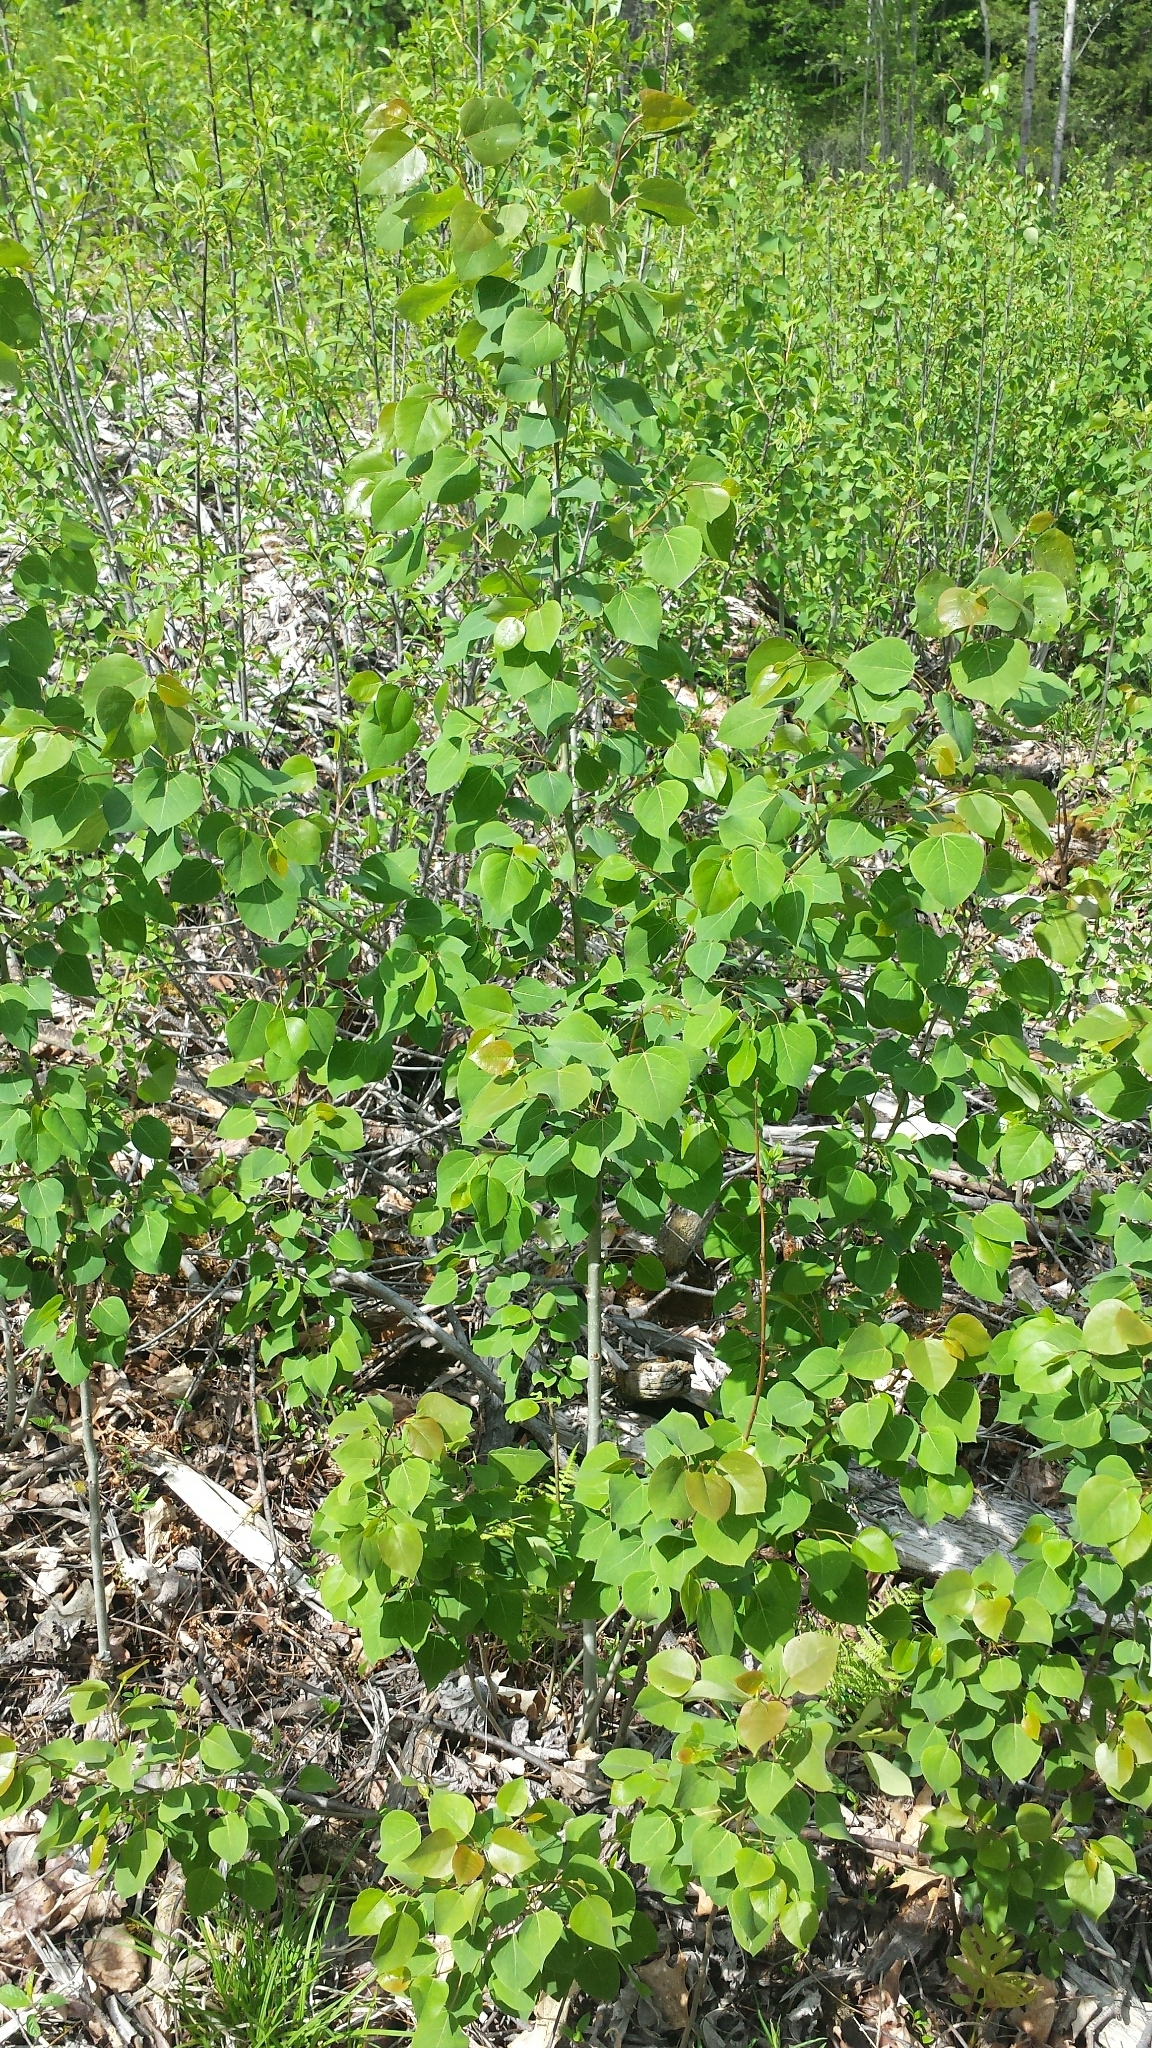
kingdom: Plantae
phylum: Tracheophyta
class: Magnoliopsida
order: Malpighiales
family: Salicaceae
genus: Populus
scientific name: Populus tremuloides
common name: Quaking aspen
